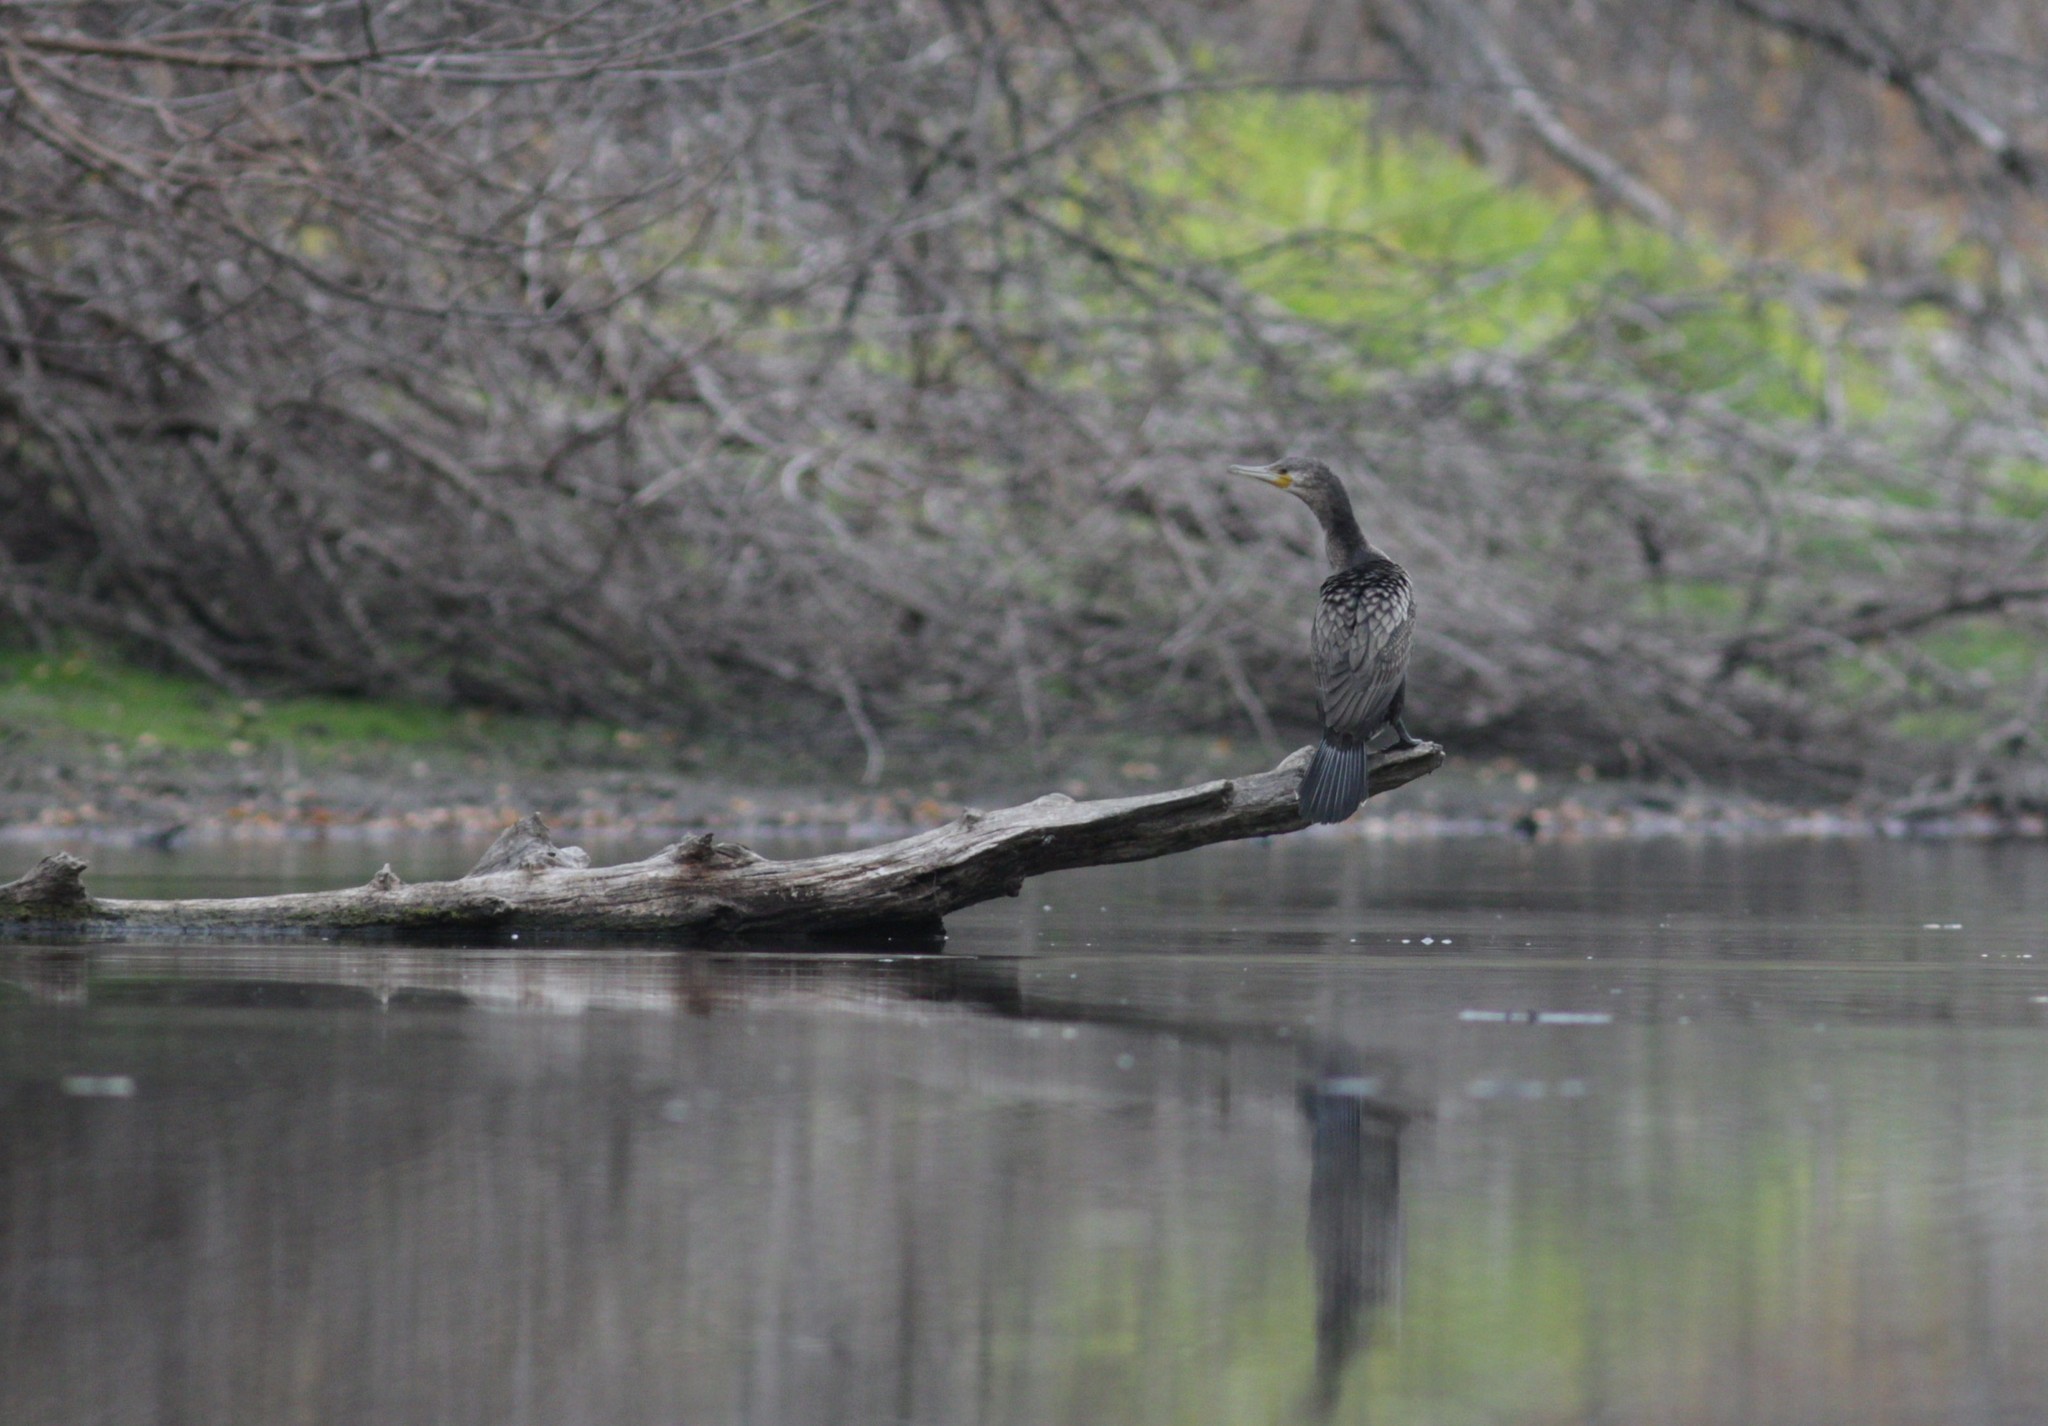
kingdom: Animalia
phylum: Chordata
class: Aves
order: Suliformes
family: Phalacrocoracidae
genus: Phalacrocorax
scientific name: Phalacrocorax carbo
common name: Great cormorant
